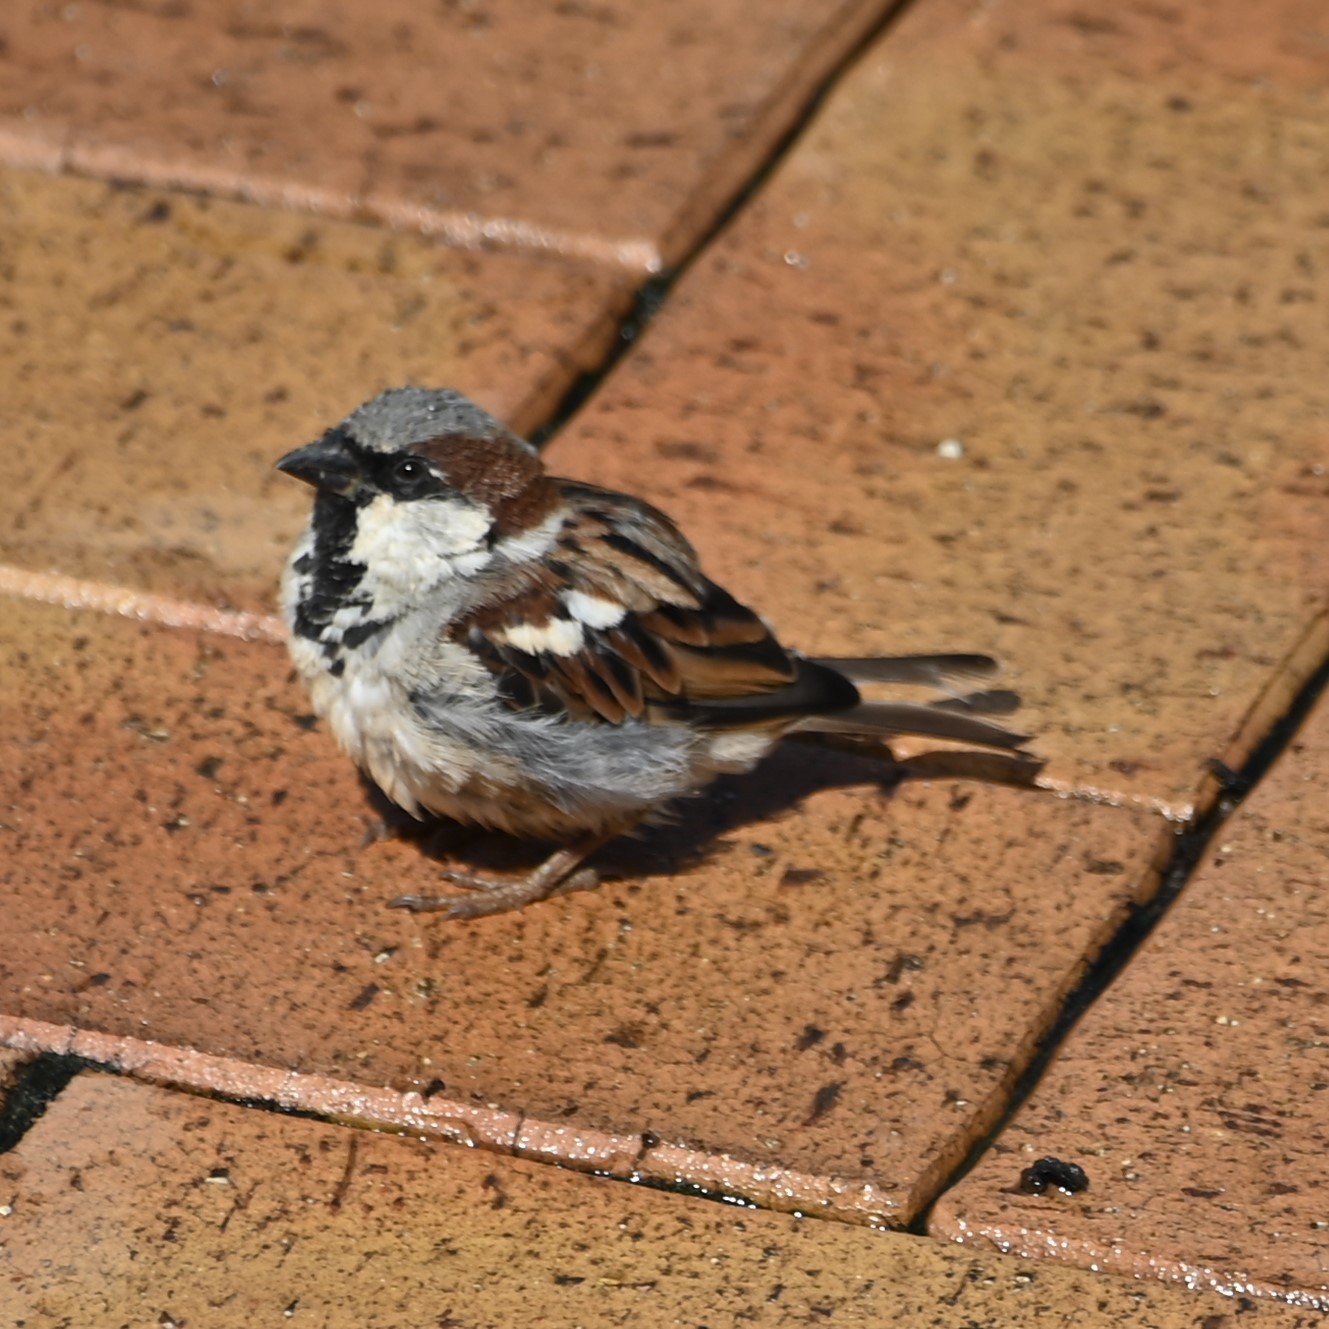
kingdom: Animalia
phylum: Chordata
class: Aves
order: Passeriformes
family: Passeridae
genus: Passer
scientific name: Passer domesticus
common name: House sparrow
